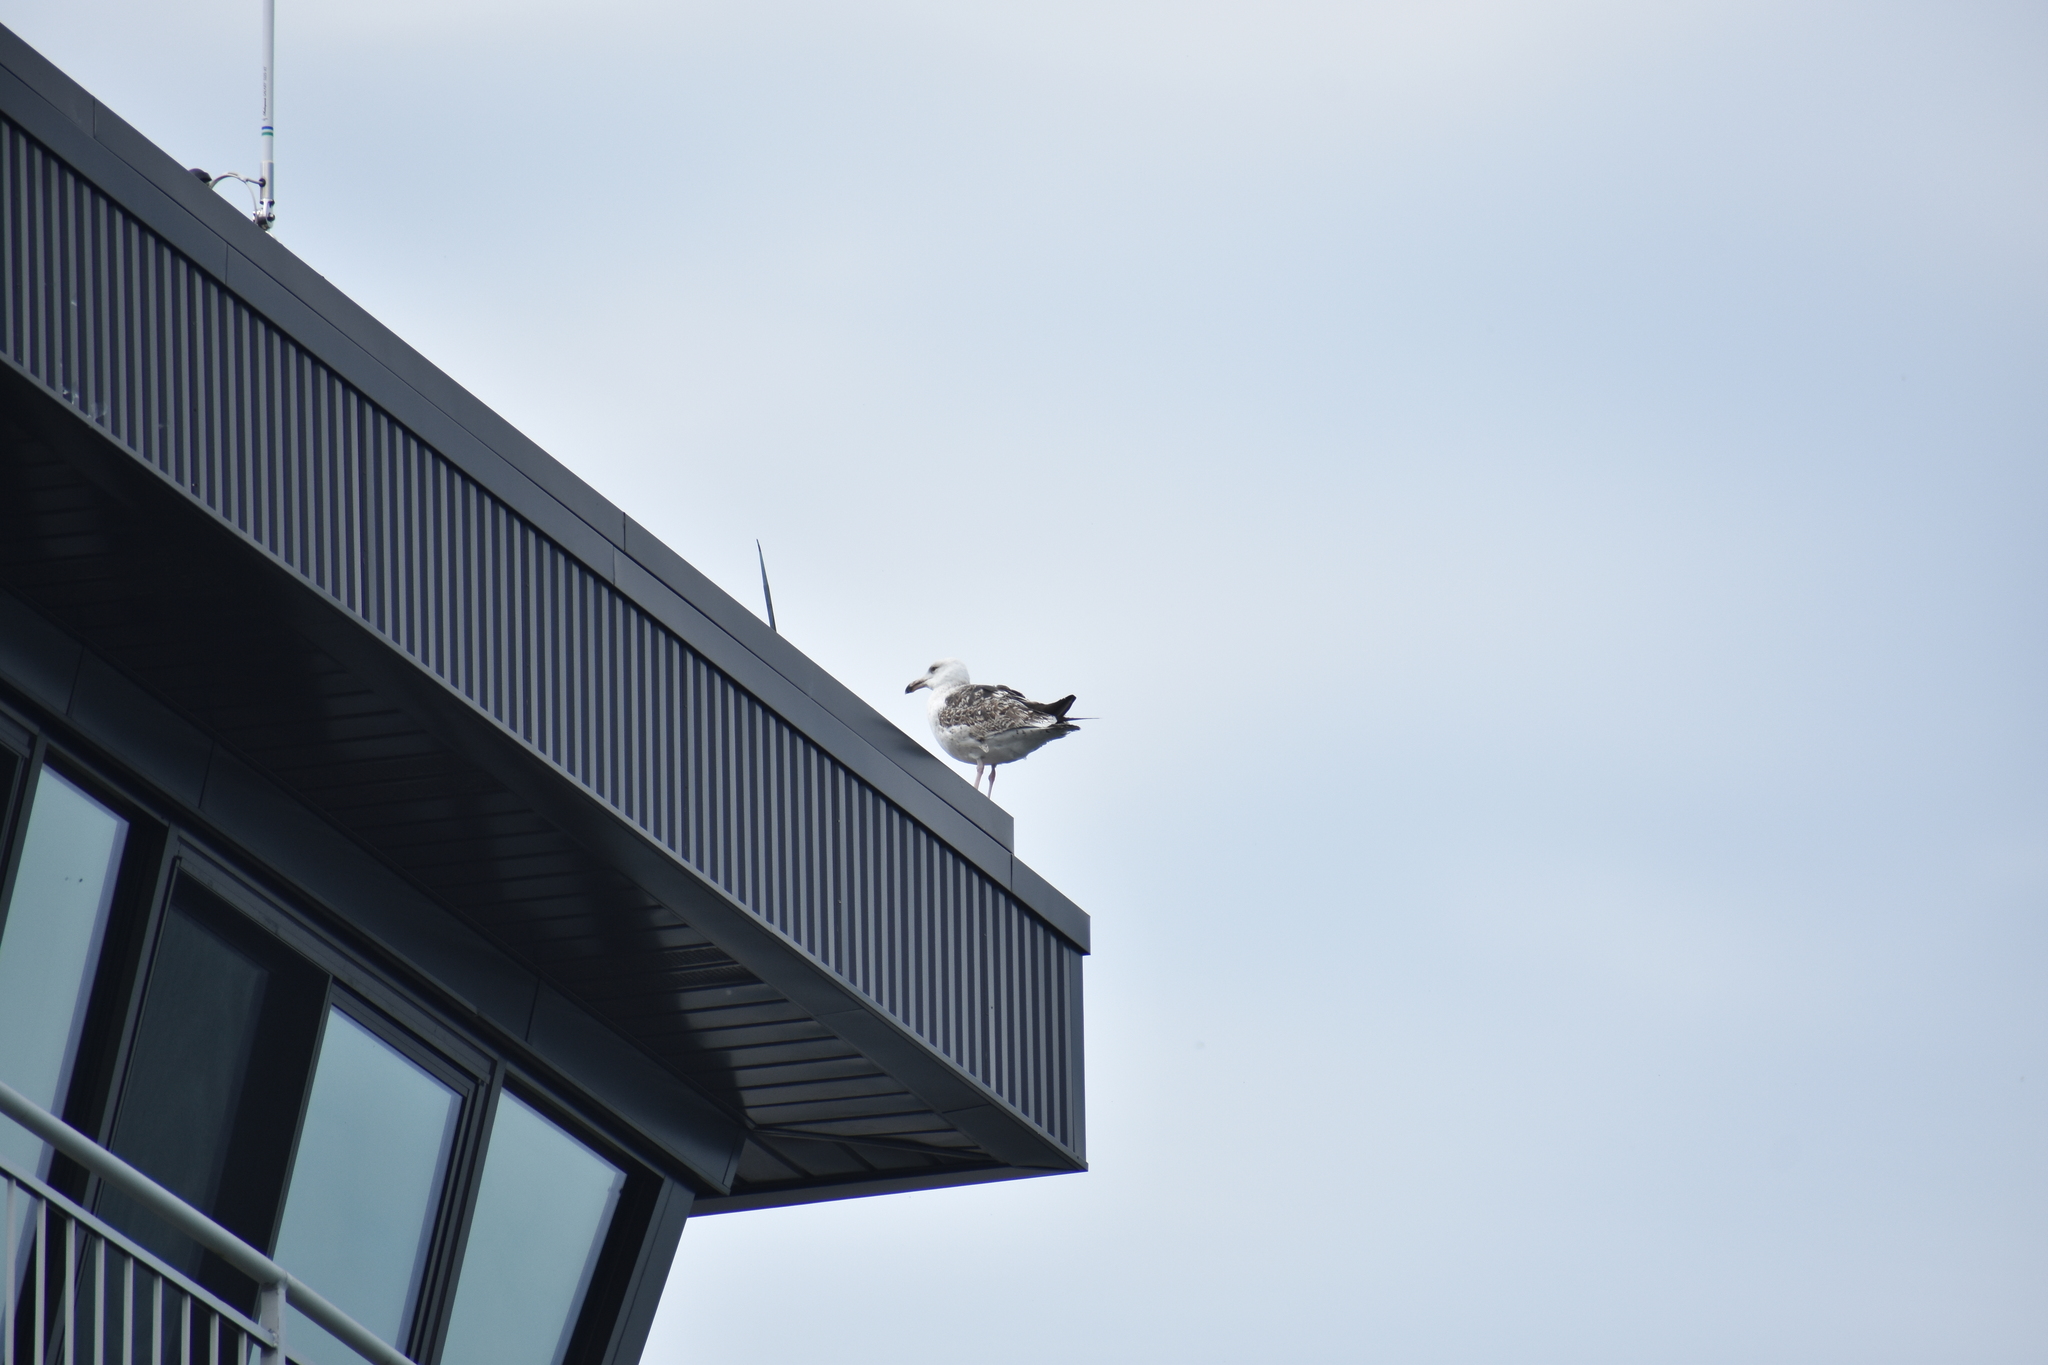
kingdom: Animalia
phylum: Chordata
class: Aves
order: Charadriiformes
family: Laridae
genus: Larus
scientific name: Larus marinus
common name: Great black-backed gull
